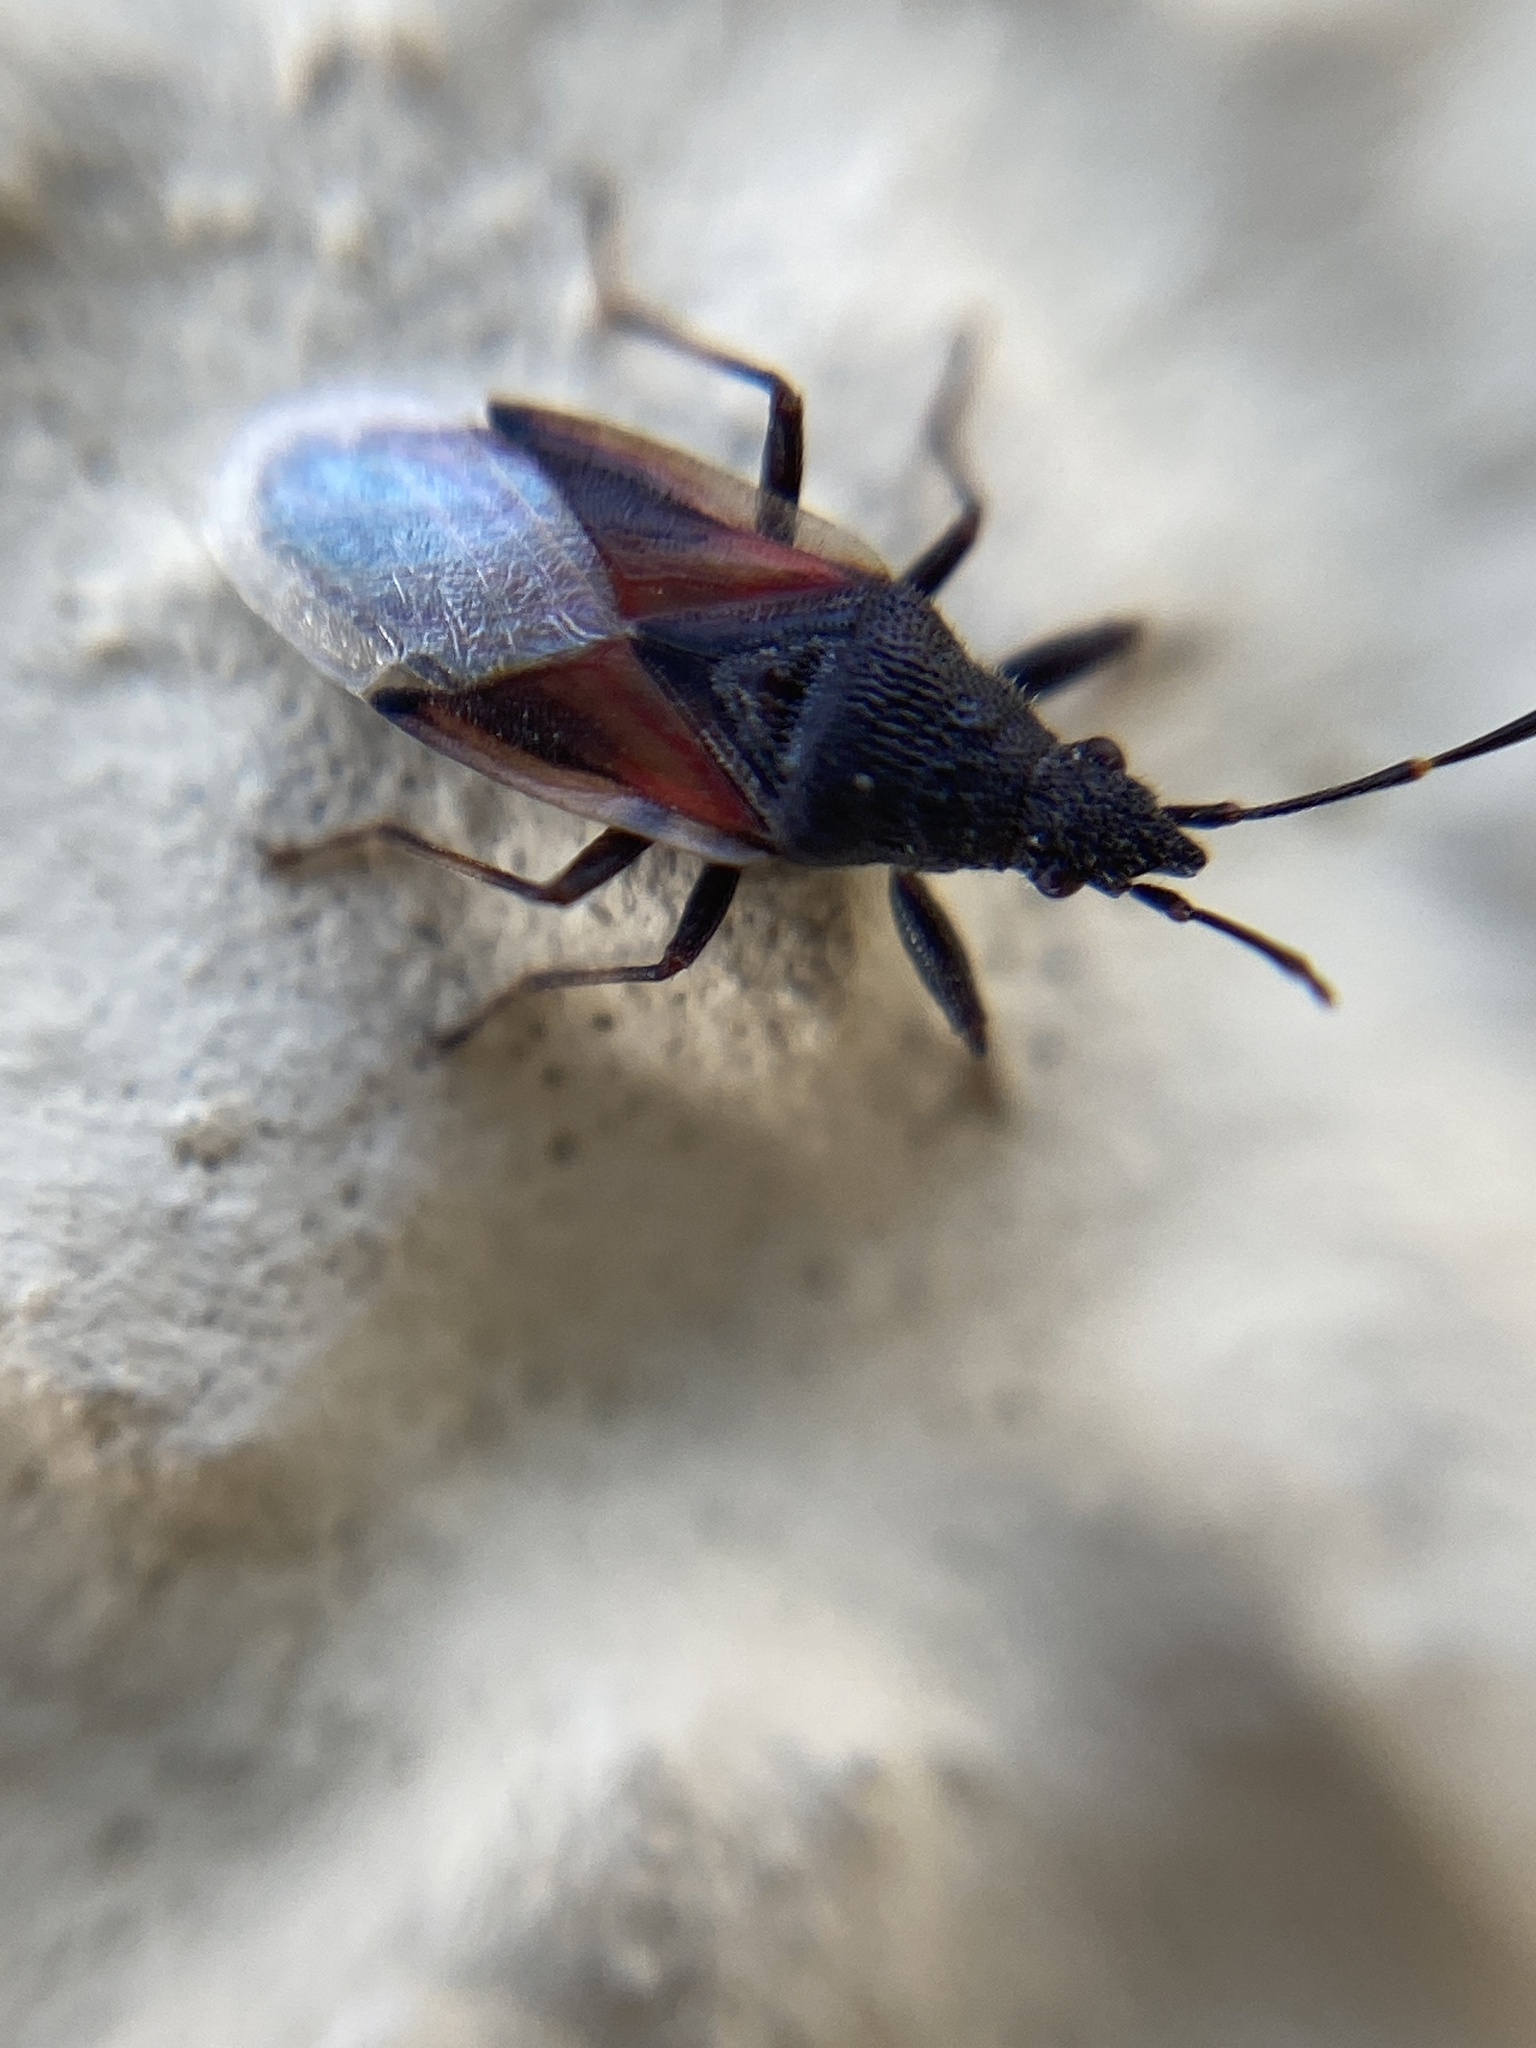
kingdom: Animalia
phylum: Arthropoda
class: Insecta
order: Hemiptera
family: Oxycarenidae
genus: Oxycarenus
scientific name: Oxycarenus lavaterae
